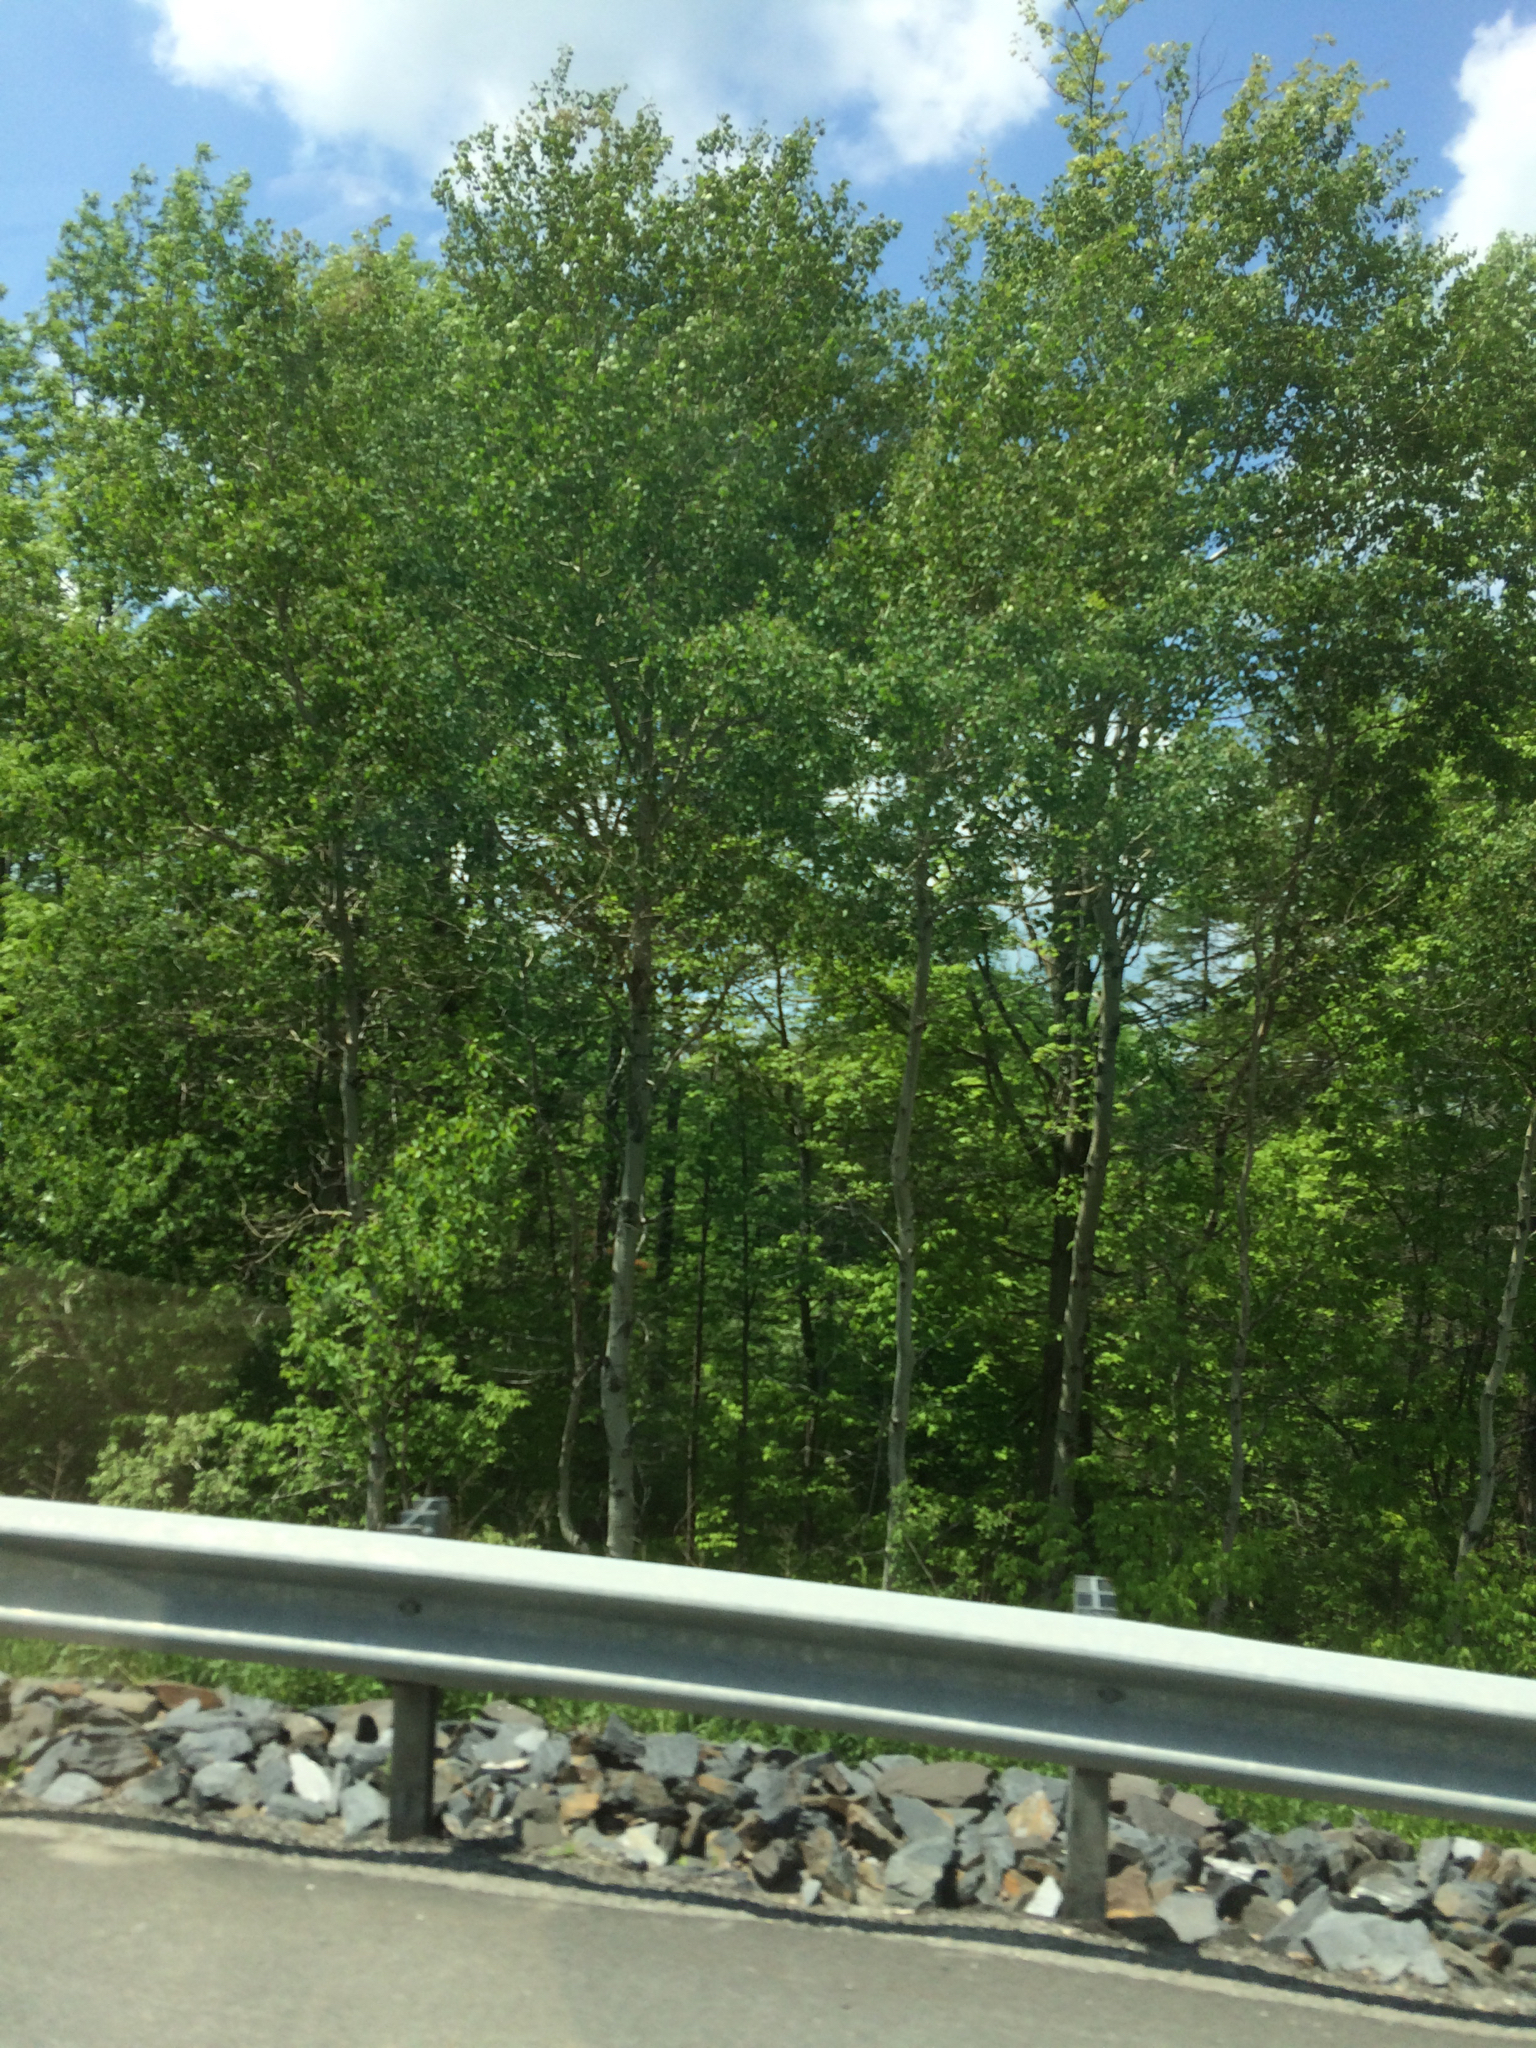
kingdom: Plantae
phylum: Tracheophyta
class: Magnoliopsida
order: Malpighiales
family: Salicaceae
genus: Populus
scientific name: Populus tremuloides
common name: Quaking aspen
